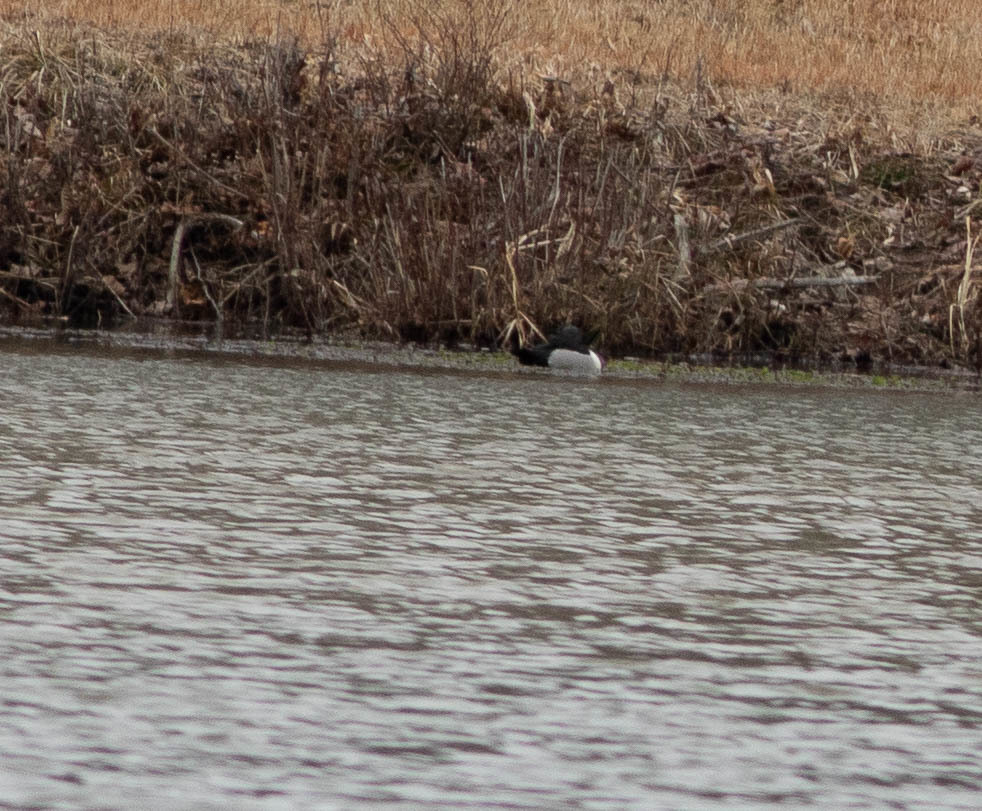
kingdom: Animalia
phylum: Chordata
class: Aves
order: Anseriformes
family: Anatidae
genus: Aythya
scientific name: Aythya collaris
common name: Ring-necked duck
